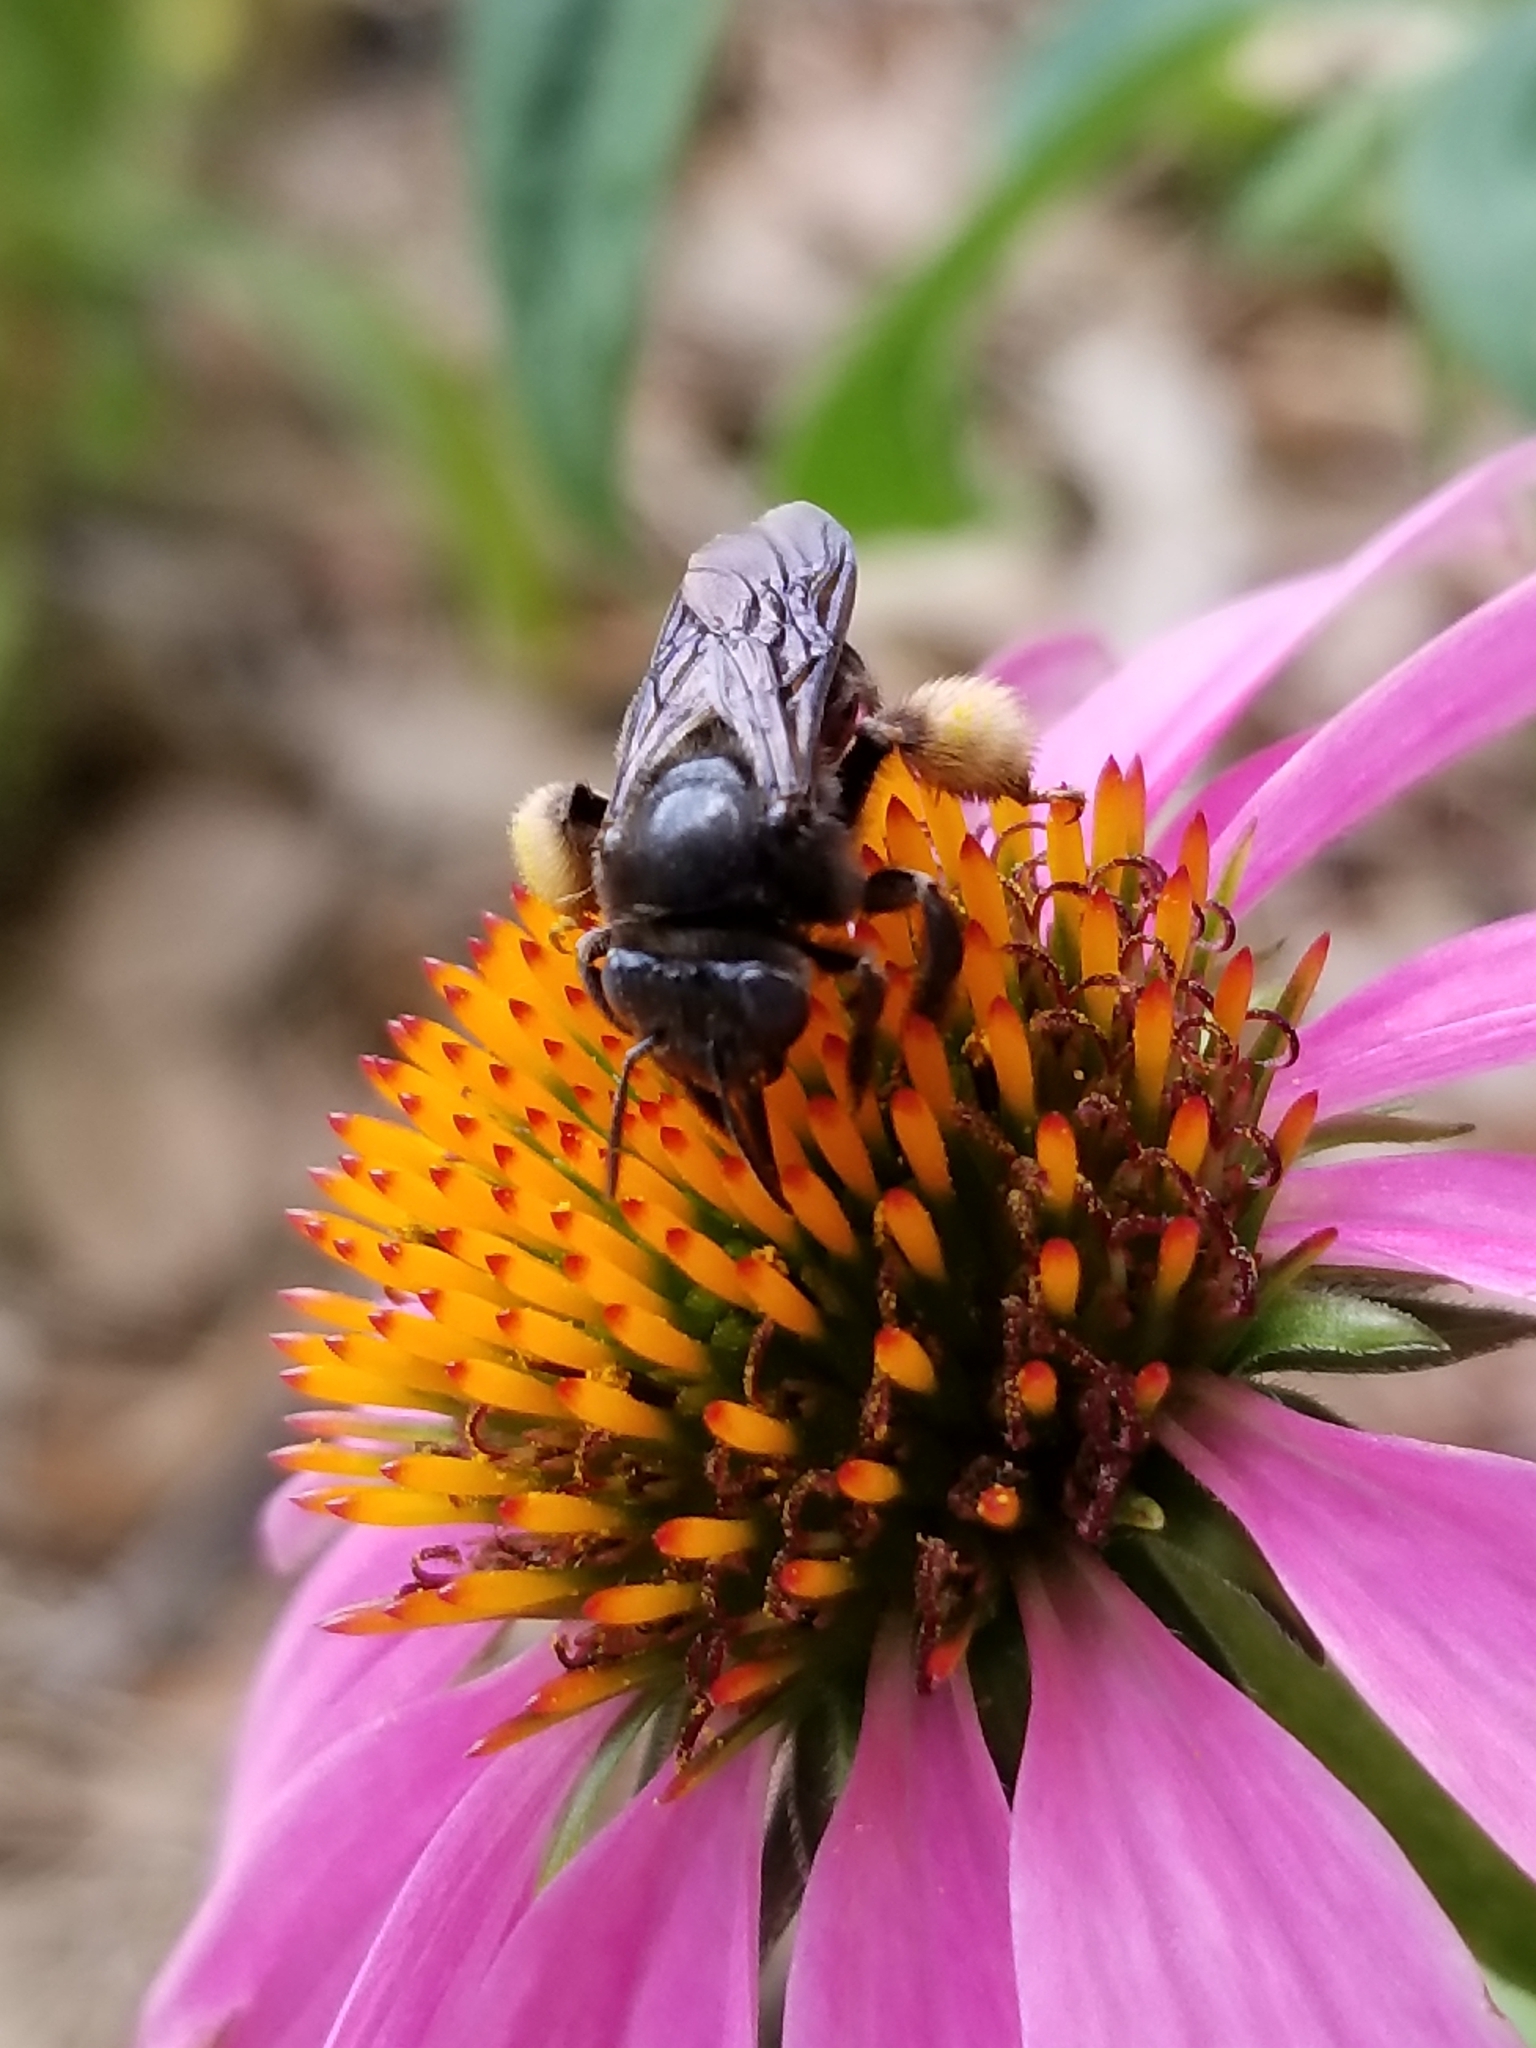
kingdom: Animalia
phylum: Arthropoda
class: Insecta
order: Hymenoptera
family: Apidae
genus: Melissodes
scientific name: Melissodes bimaculatus
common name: Two-spotted long-horned bee
